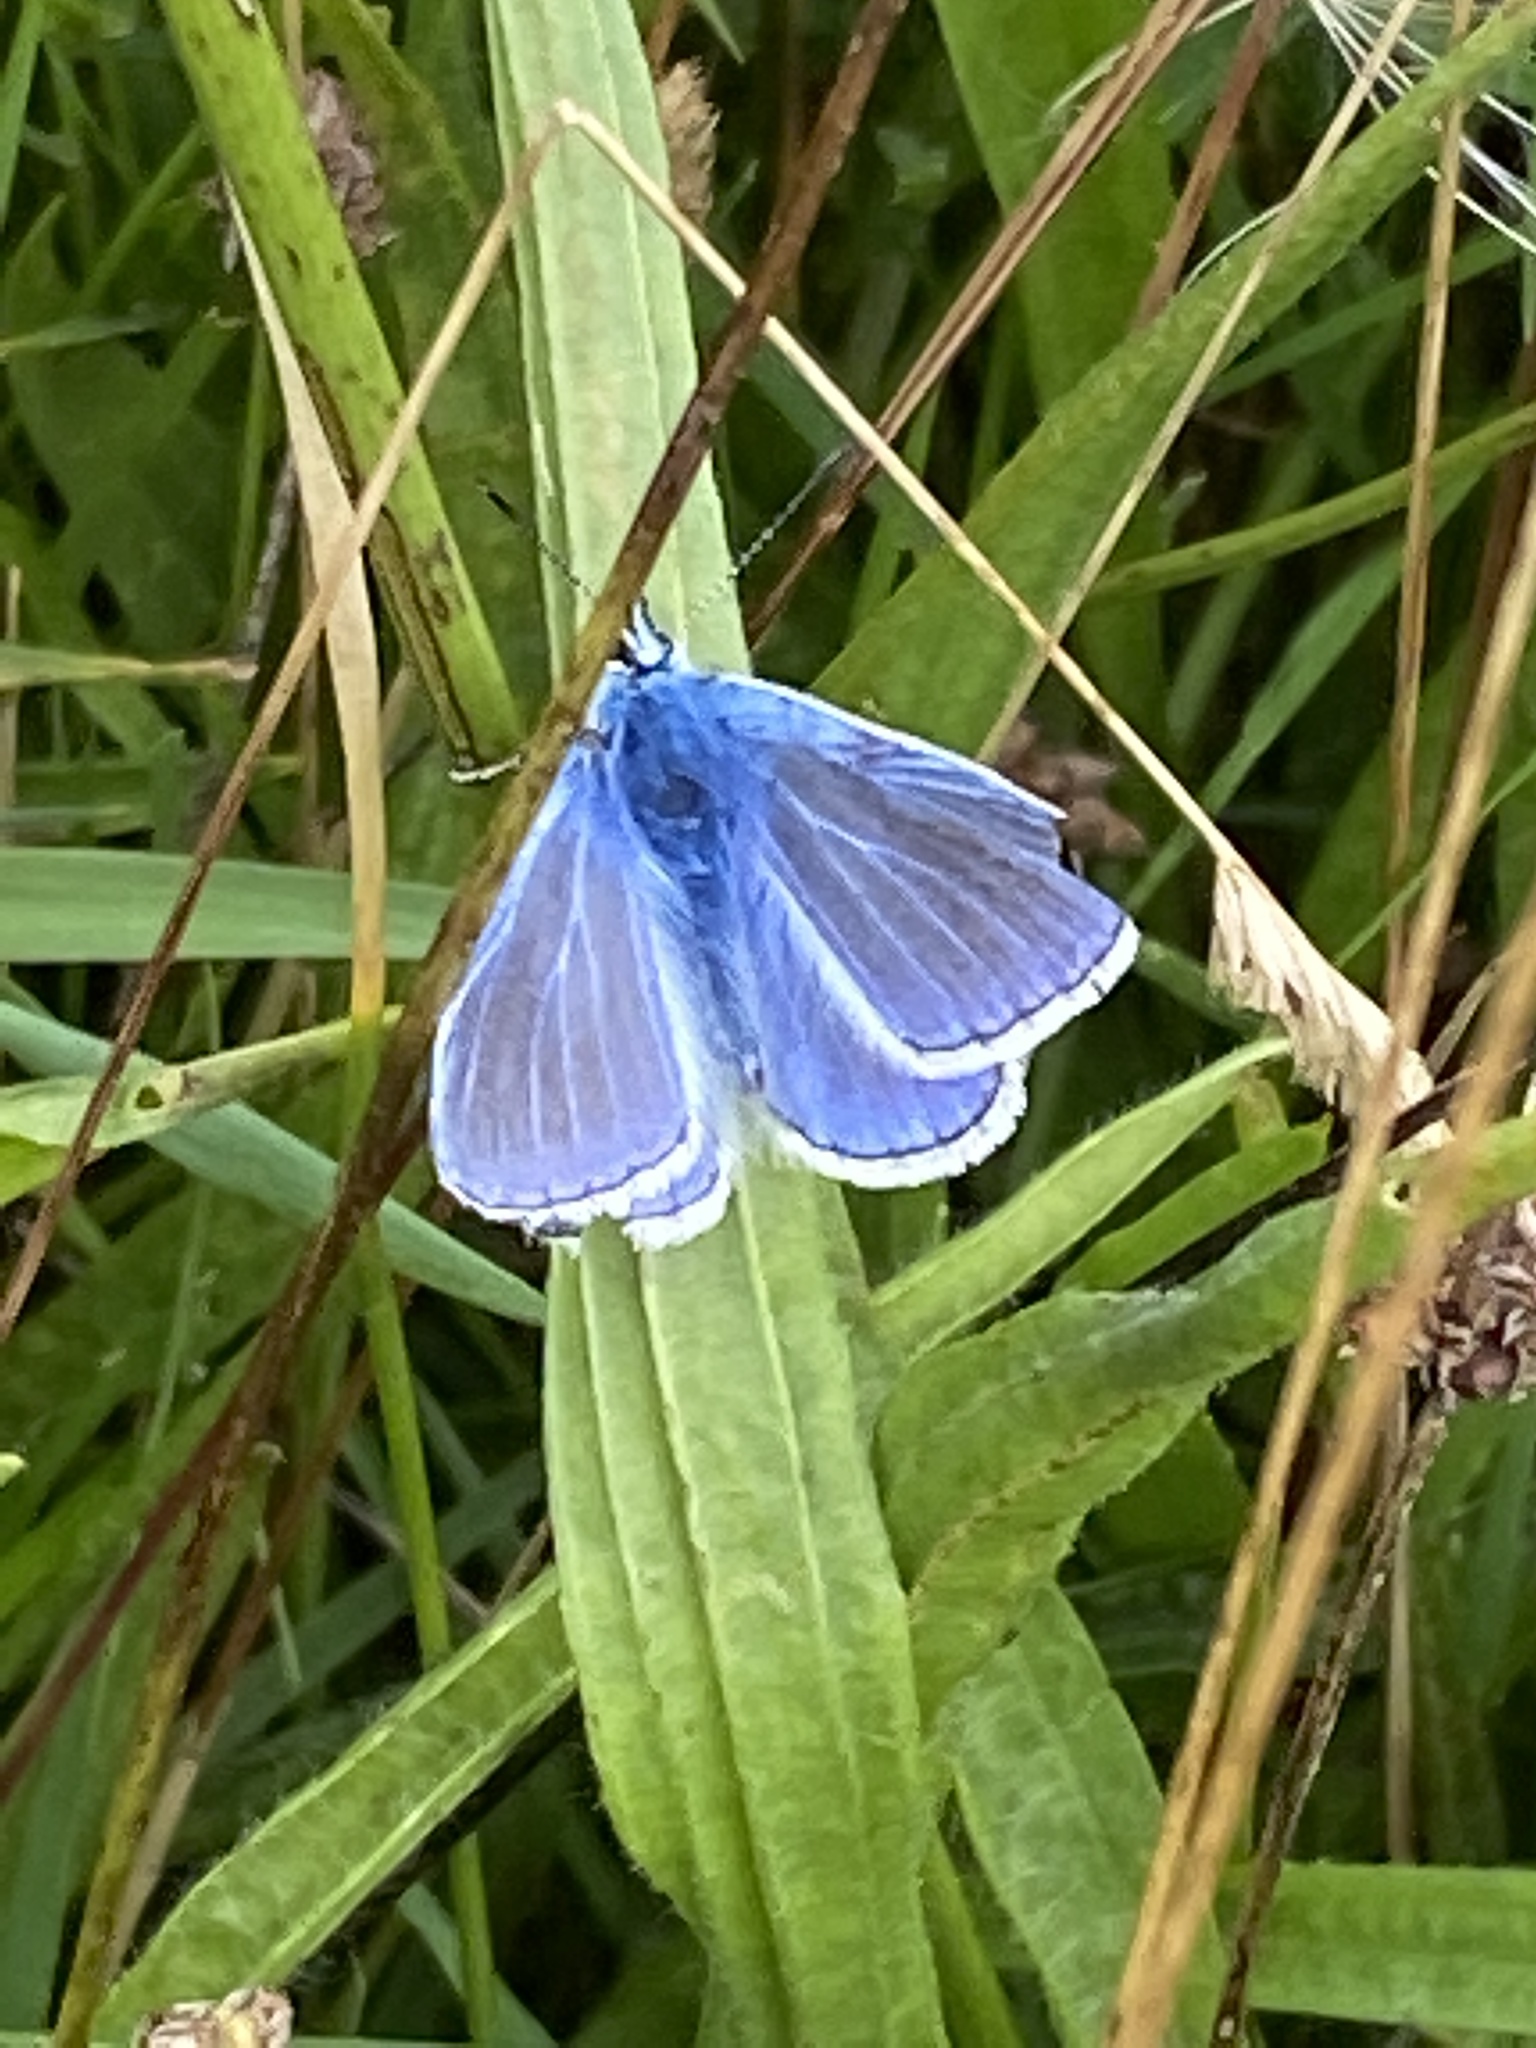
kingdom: Animalia
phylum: Arthropoda
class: Insecta
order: Lepidoptera
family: Lycaenidae
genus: Polyommatus
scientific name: Polyommatus icarus
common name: Common blue
